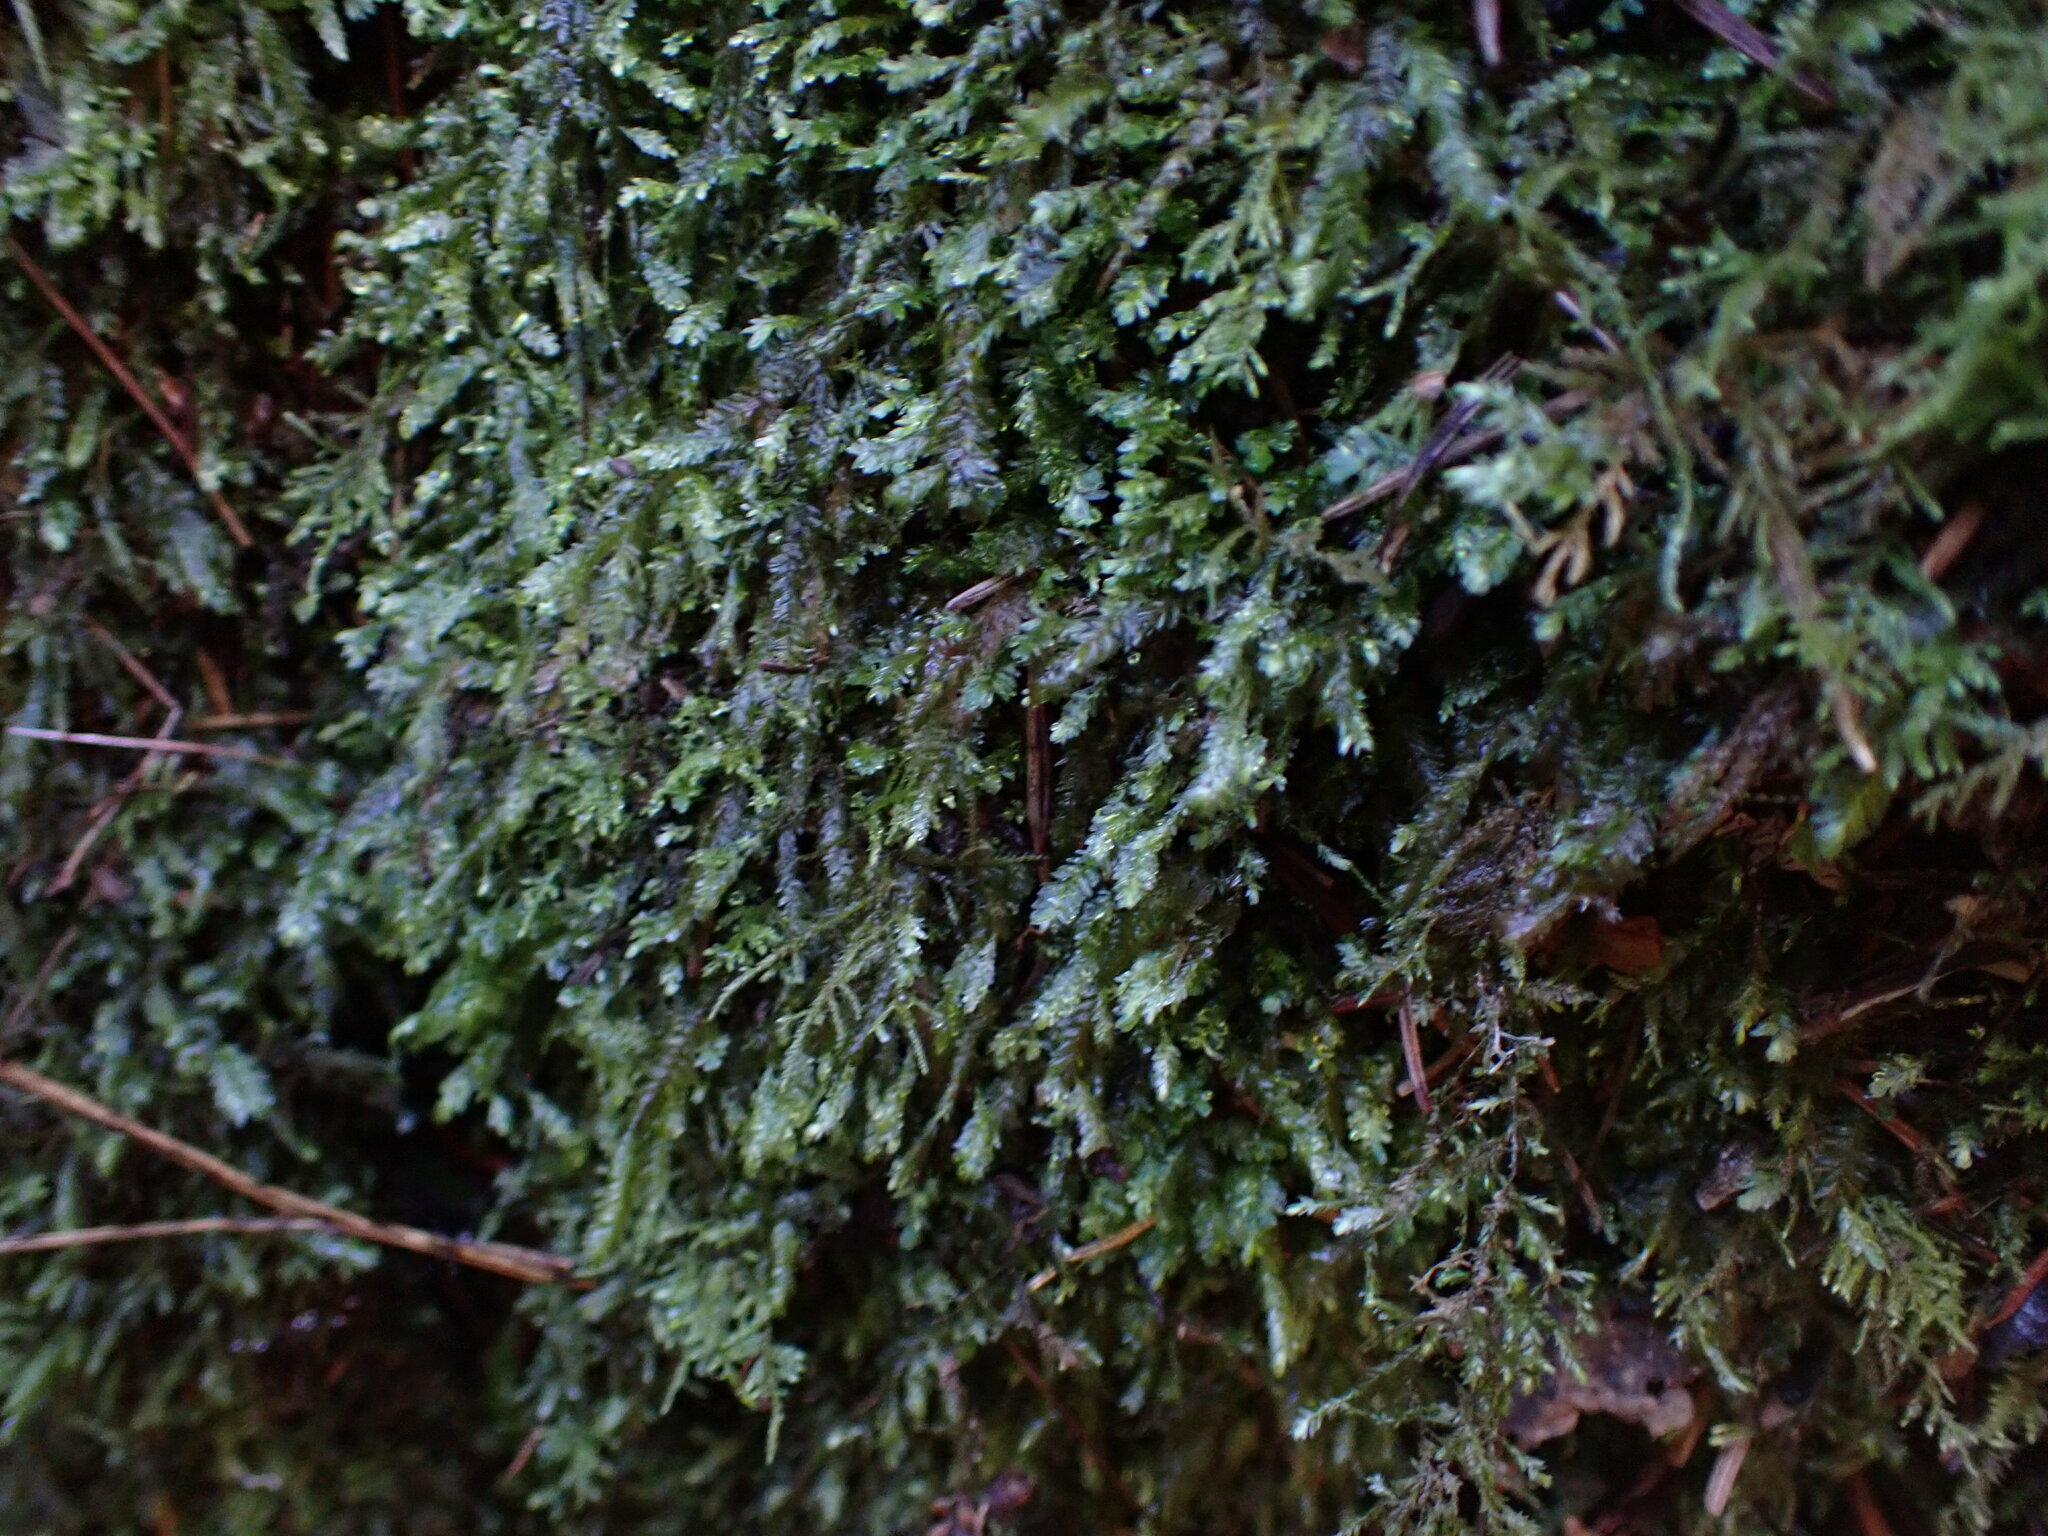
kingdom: Plantae
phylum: Bryophyta
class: Bryopsida
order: Hypnales
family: Neckeraceae
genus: Dannorrisia
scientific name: Dannorrisia bigelovii
